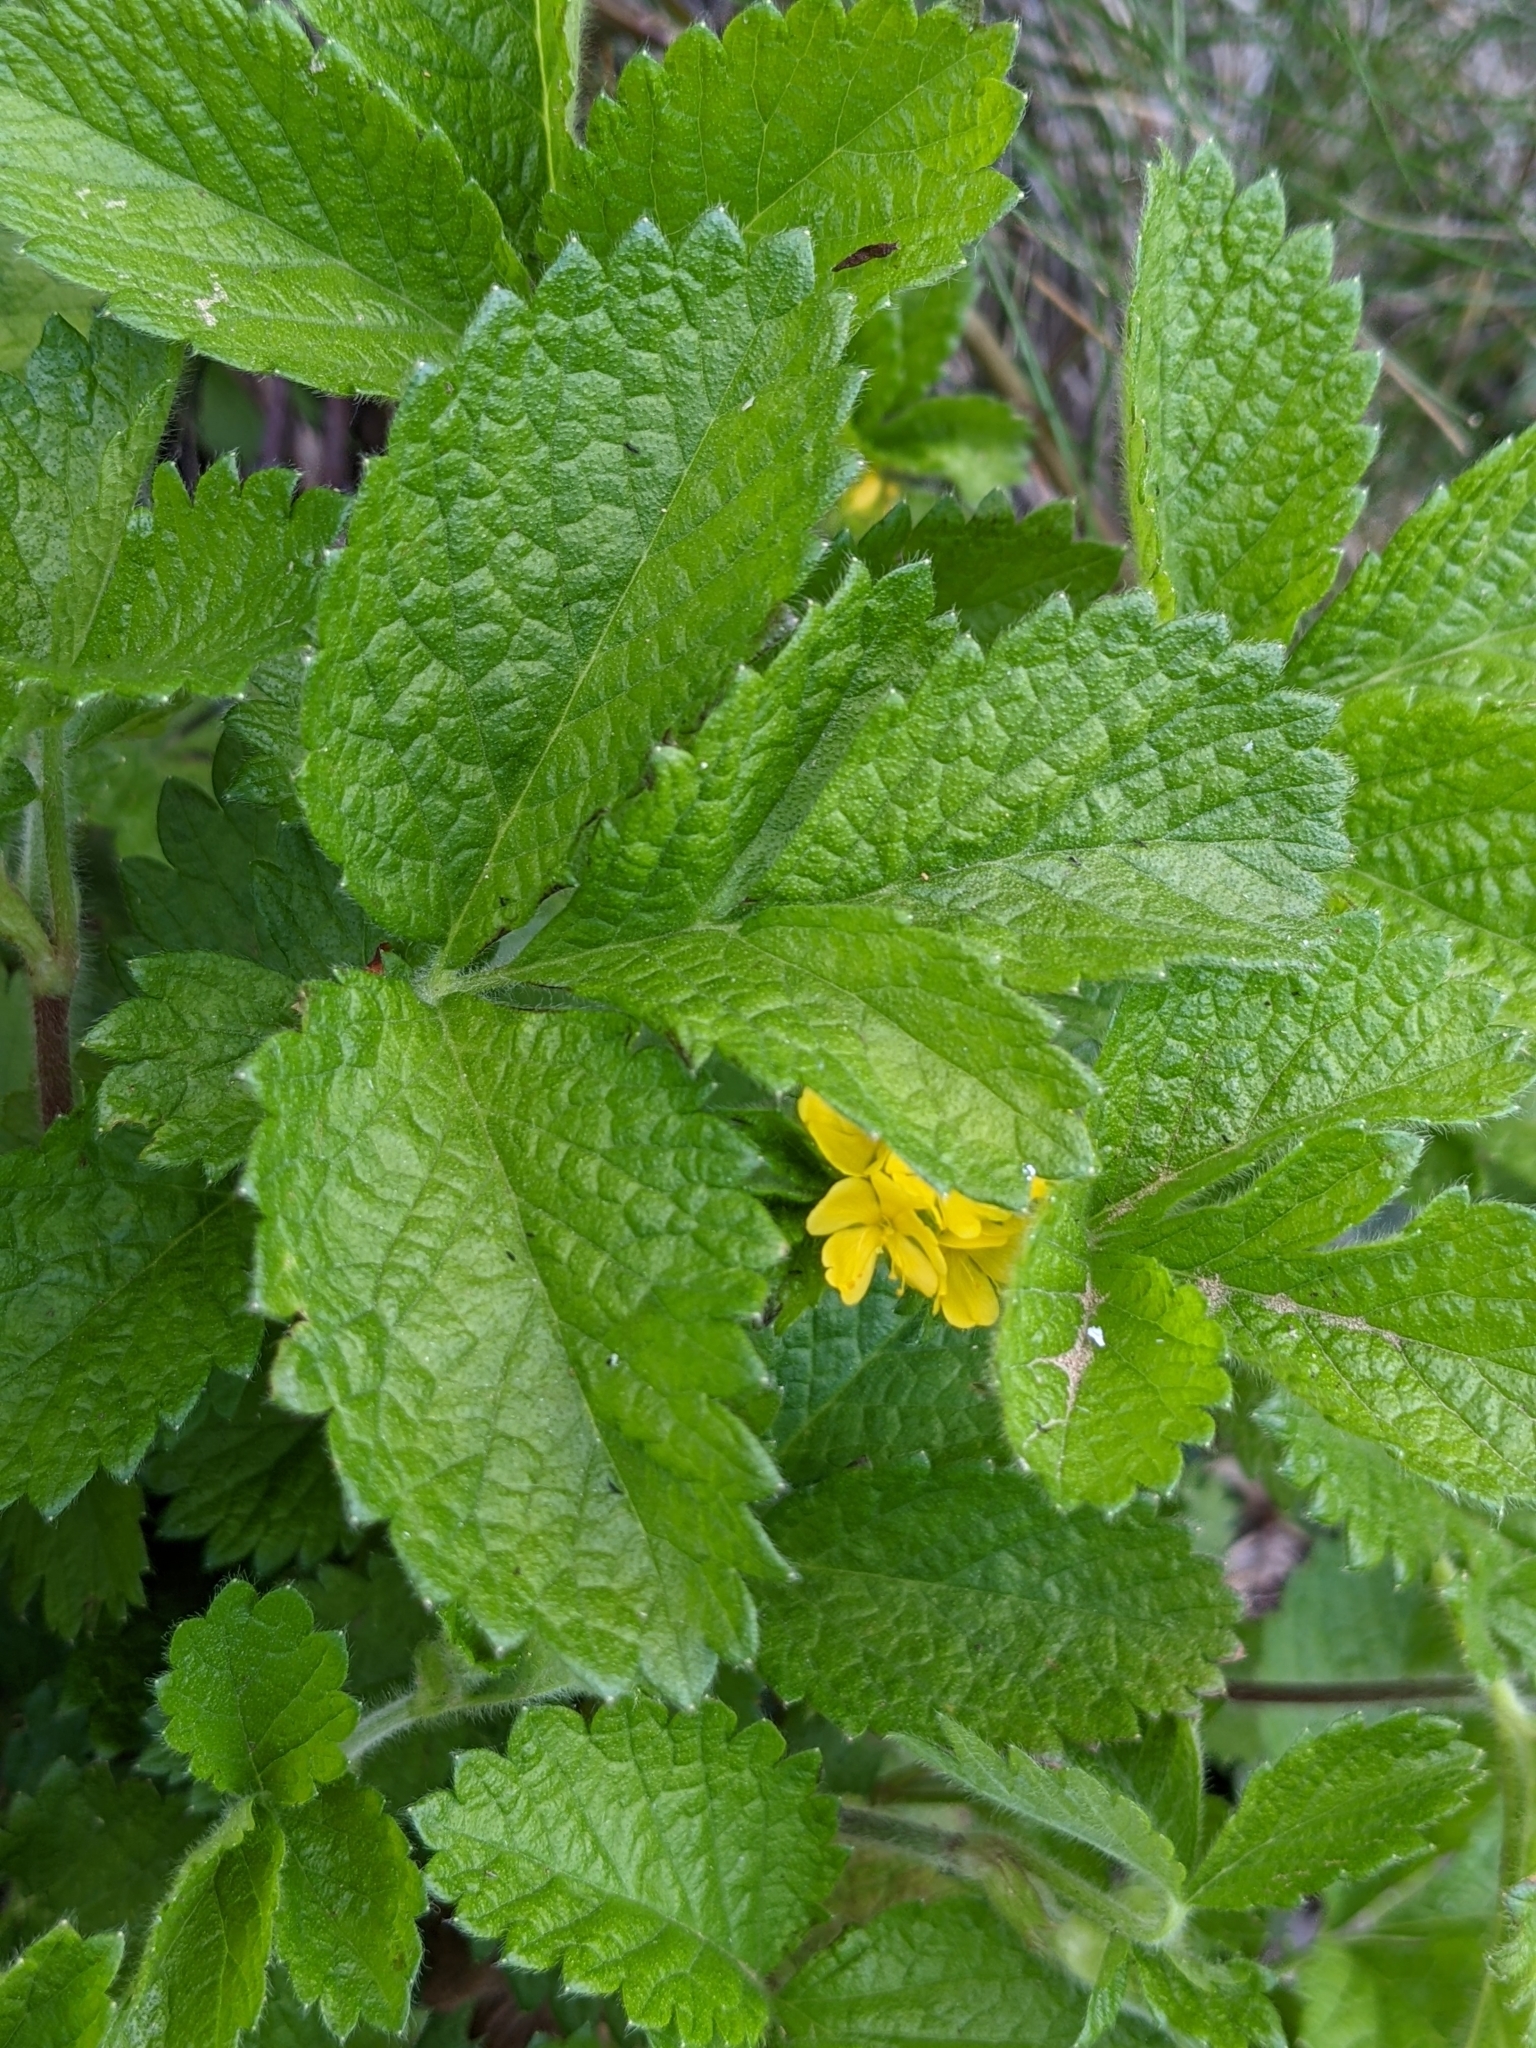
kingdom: Plantae
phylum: Tracheophyta
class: Magnoliopsida
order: Rosales
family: Rosaceae
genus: Aremonia
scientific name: Aremonia agrimonoides
